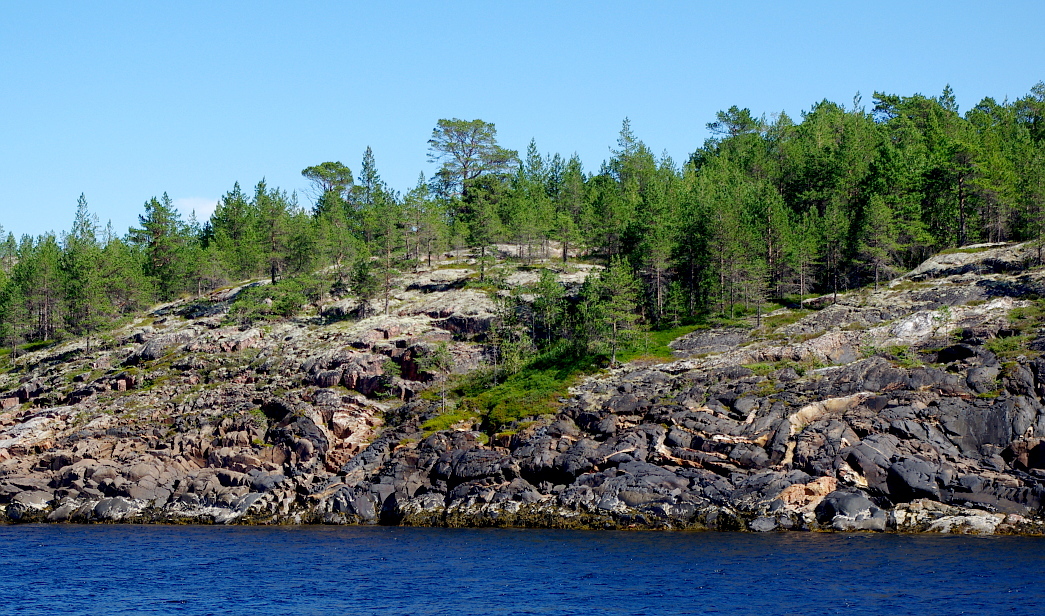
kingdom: Plantae
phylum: Tracheophyta
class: Pinopsida
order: Pinales
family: Pinaceae
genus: Pinus
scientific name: Pinus sylvestris
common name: Scots pine
